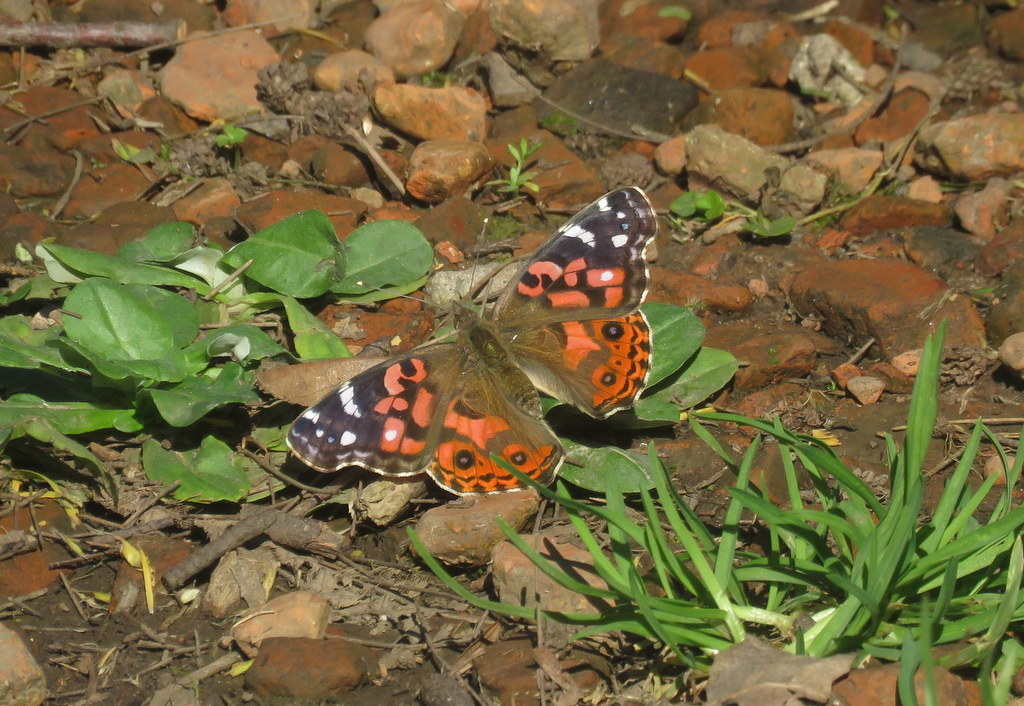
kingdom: Animalia
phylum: Arthropoda
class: Insecta
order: Lepidoptera
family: Nymphalidae
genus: Vanessa
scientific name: Vanessa braziliensis
